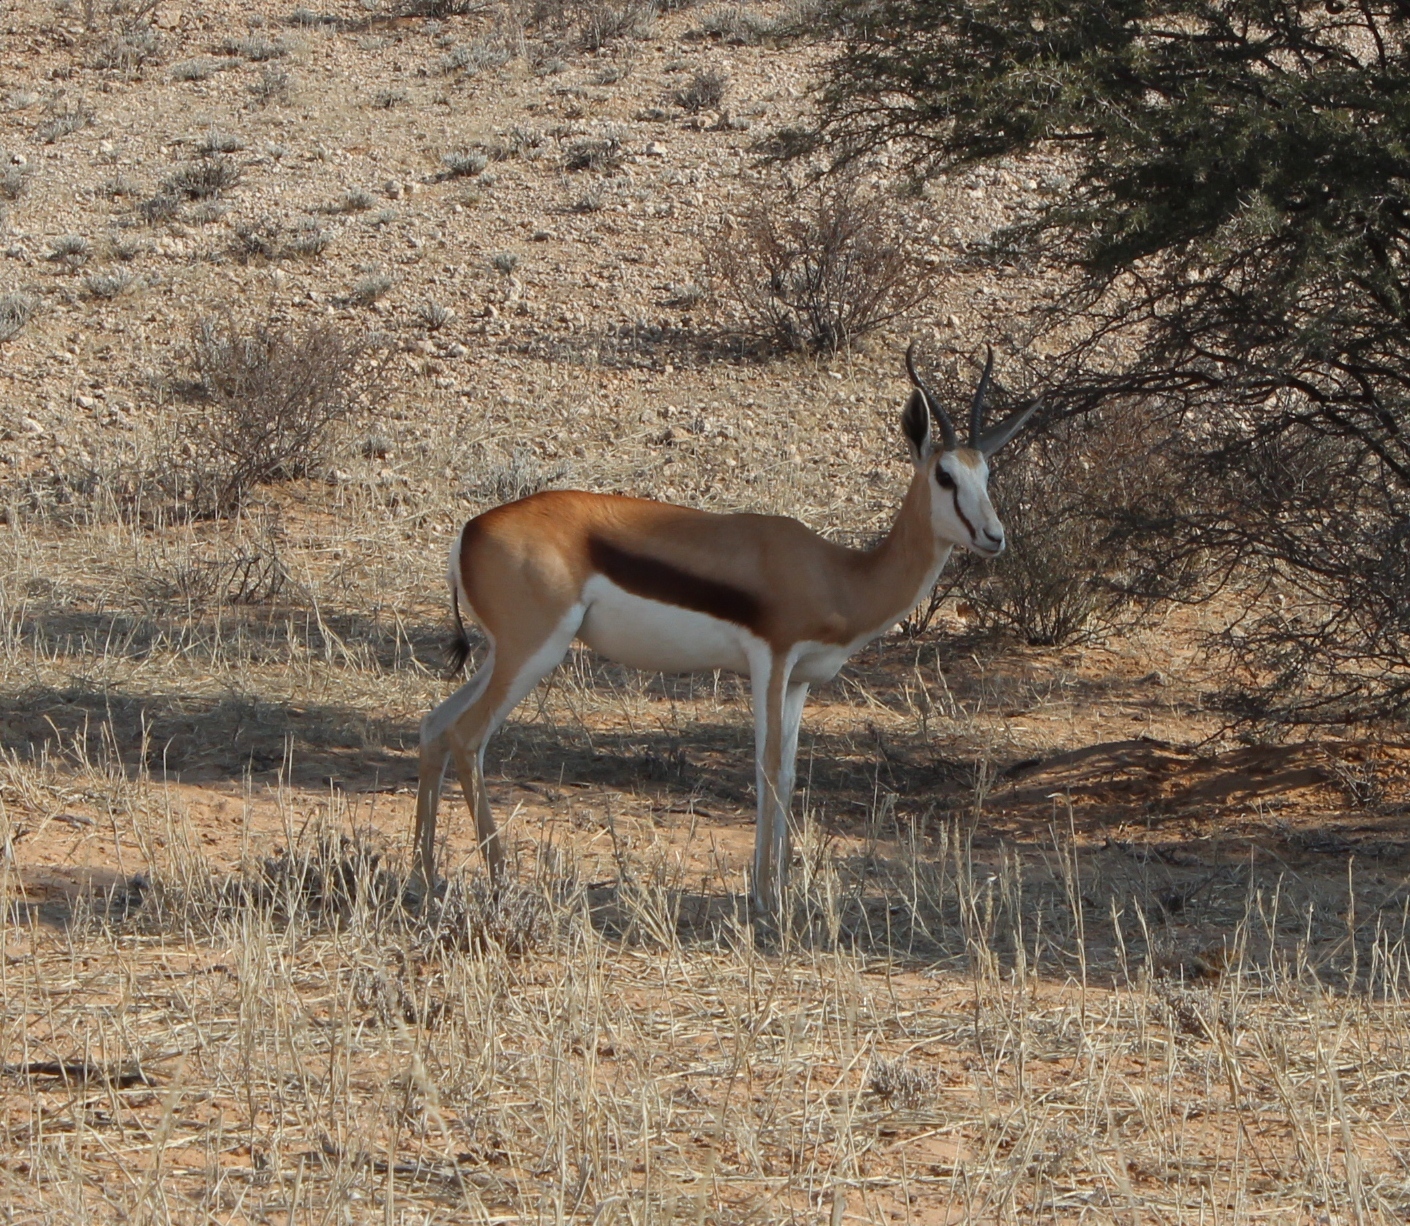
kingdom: Animalia
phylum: Chordata
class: Mammalia
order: Artiodactyla
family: Bovidae
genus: Antidorcas
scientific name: Antidorcas marsupialis
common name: Springbok
